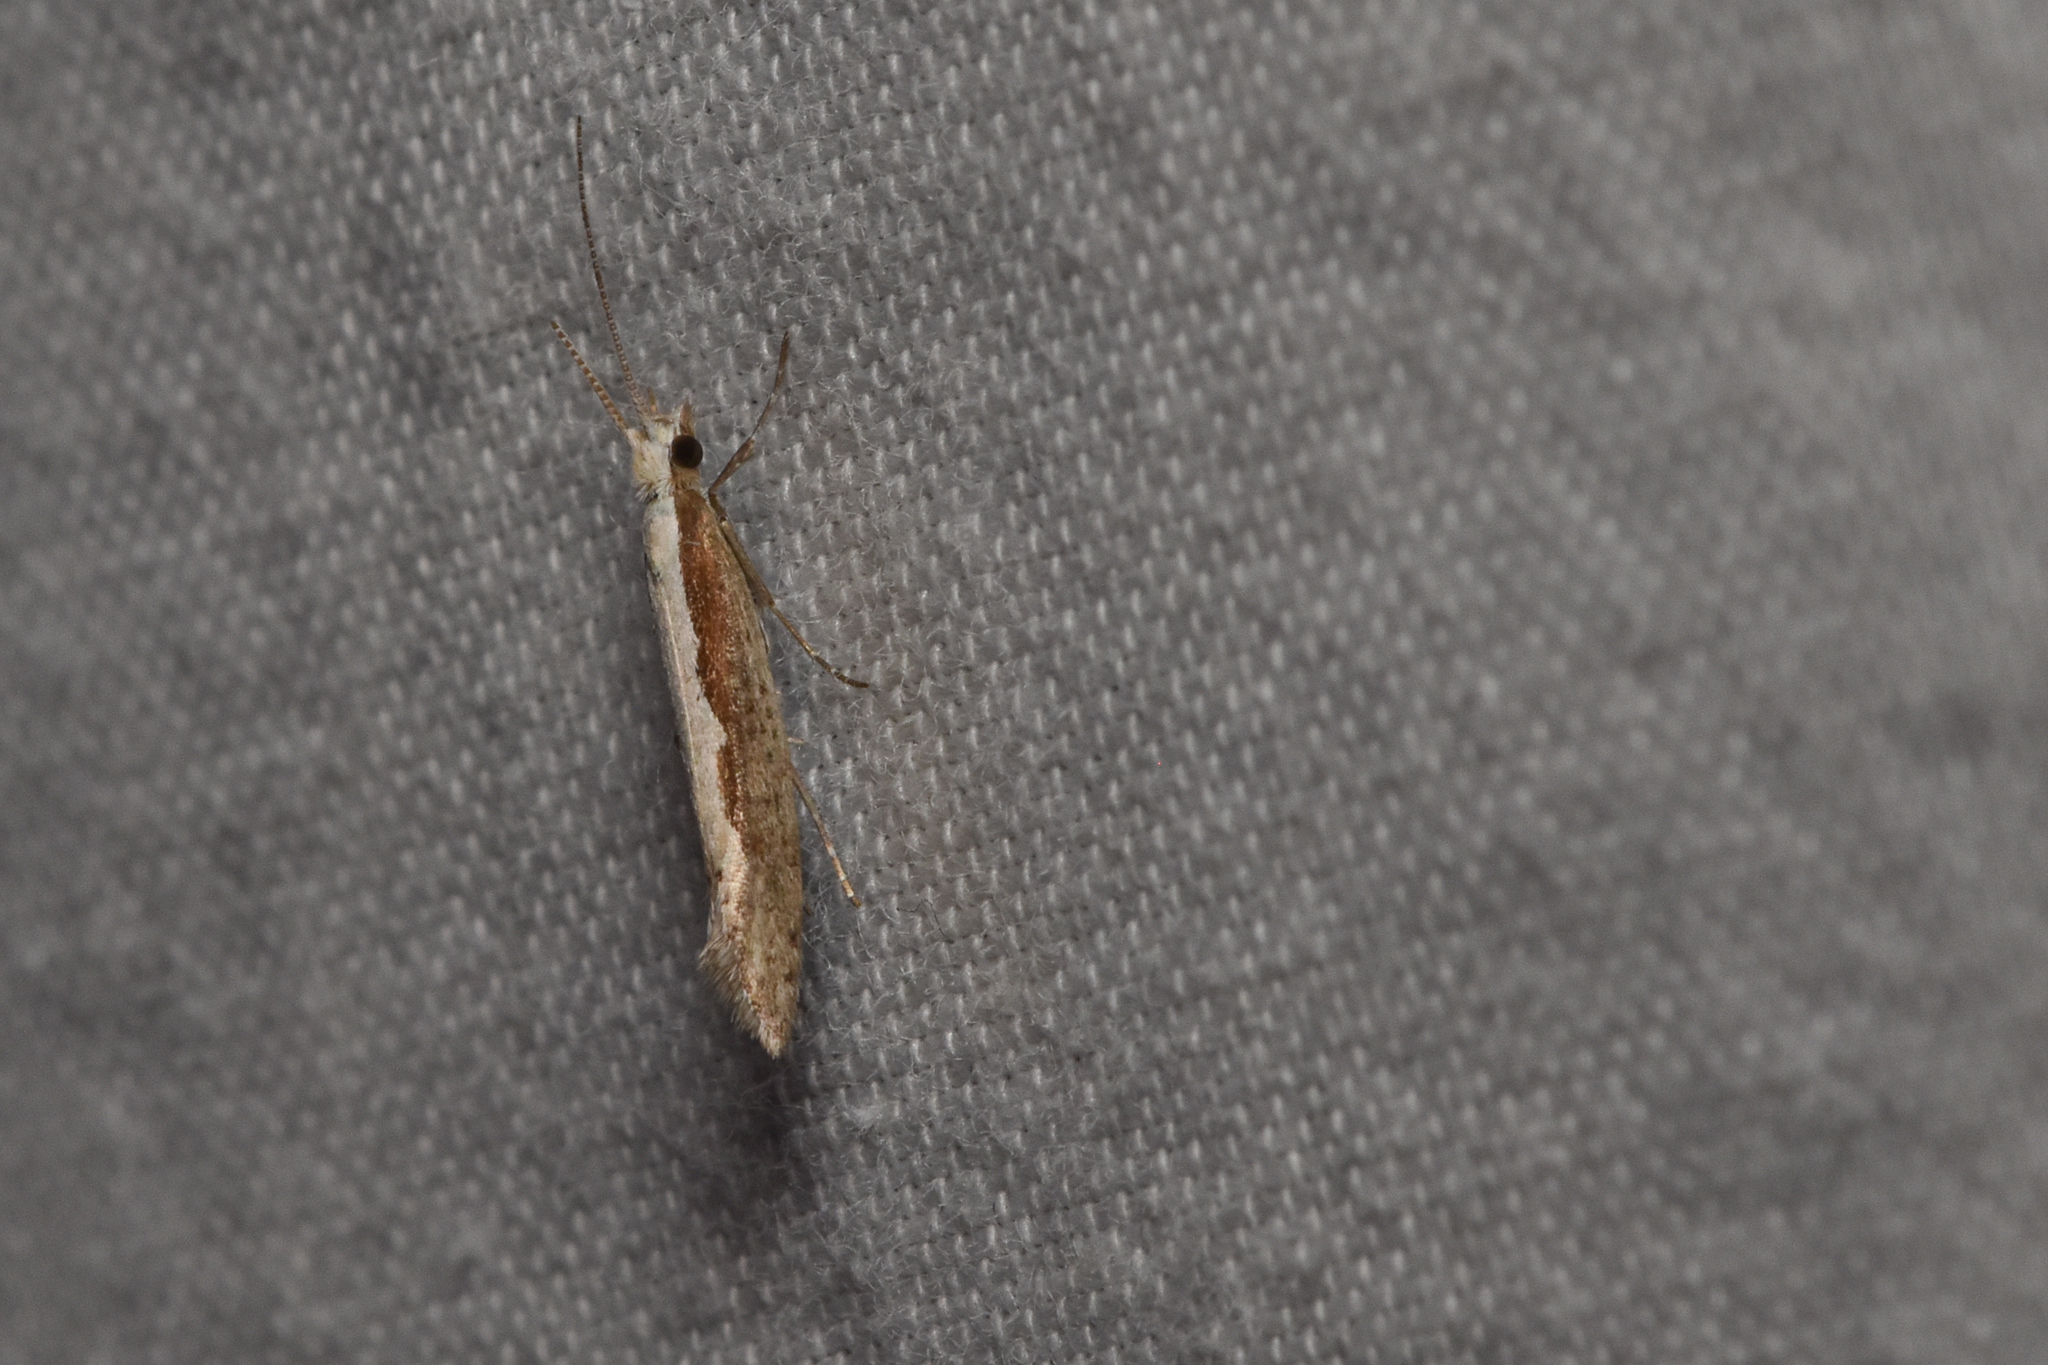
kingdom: Animalia
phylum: Arthropoda
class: Insecta
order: Lepidoptera
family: Plutellidae
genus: Plutella
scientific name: Plutella xylostella
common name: Diamond-back moth
